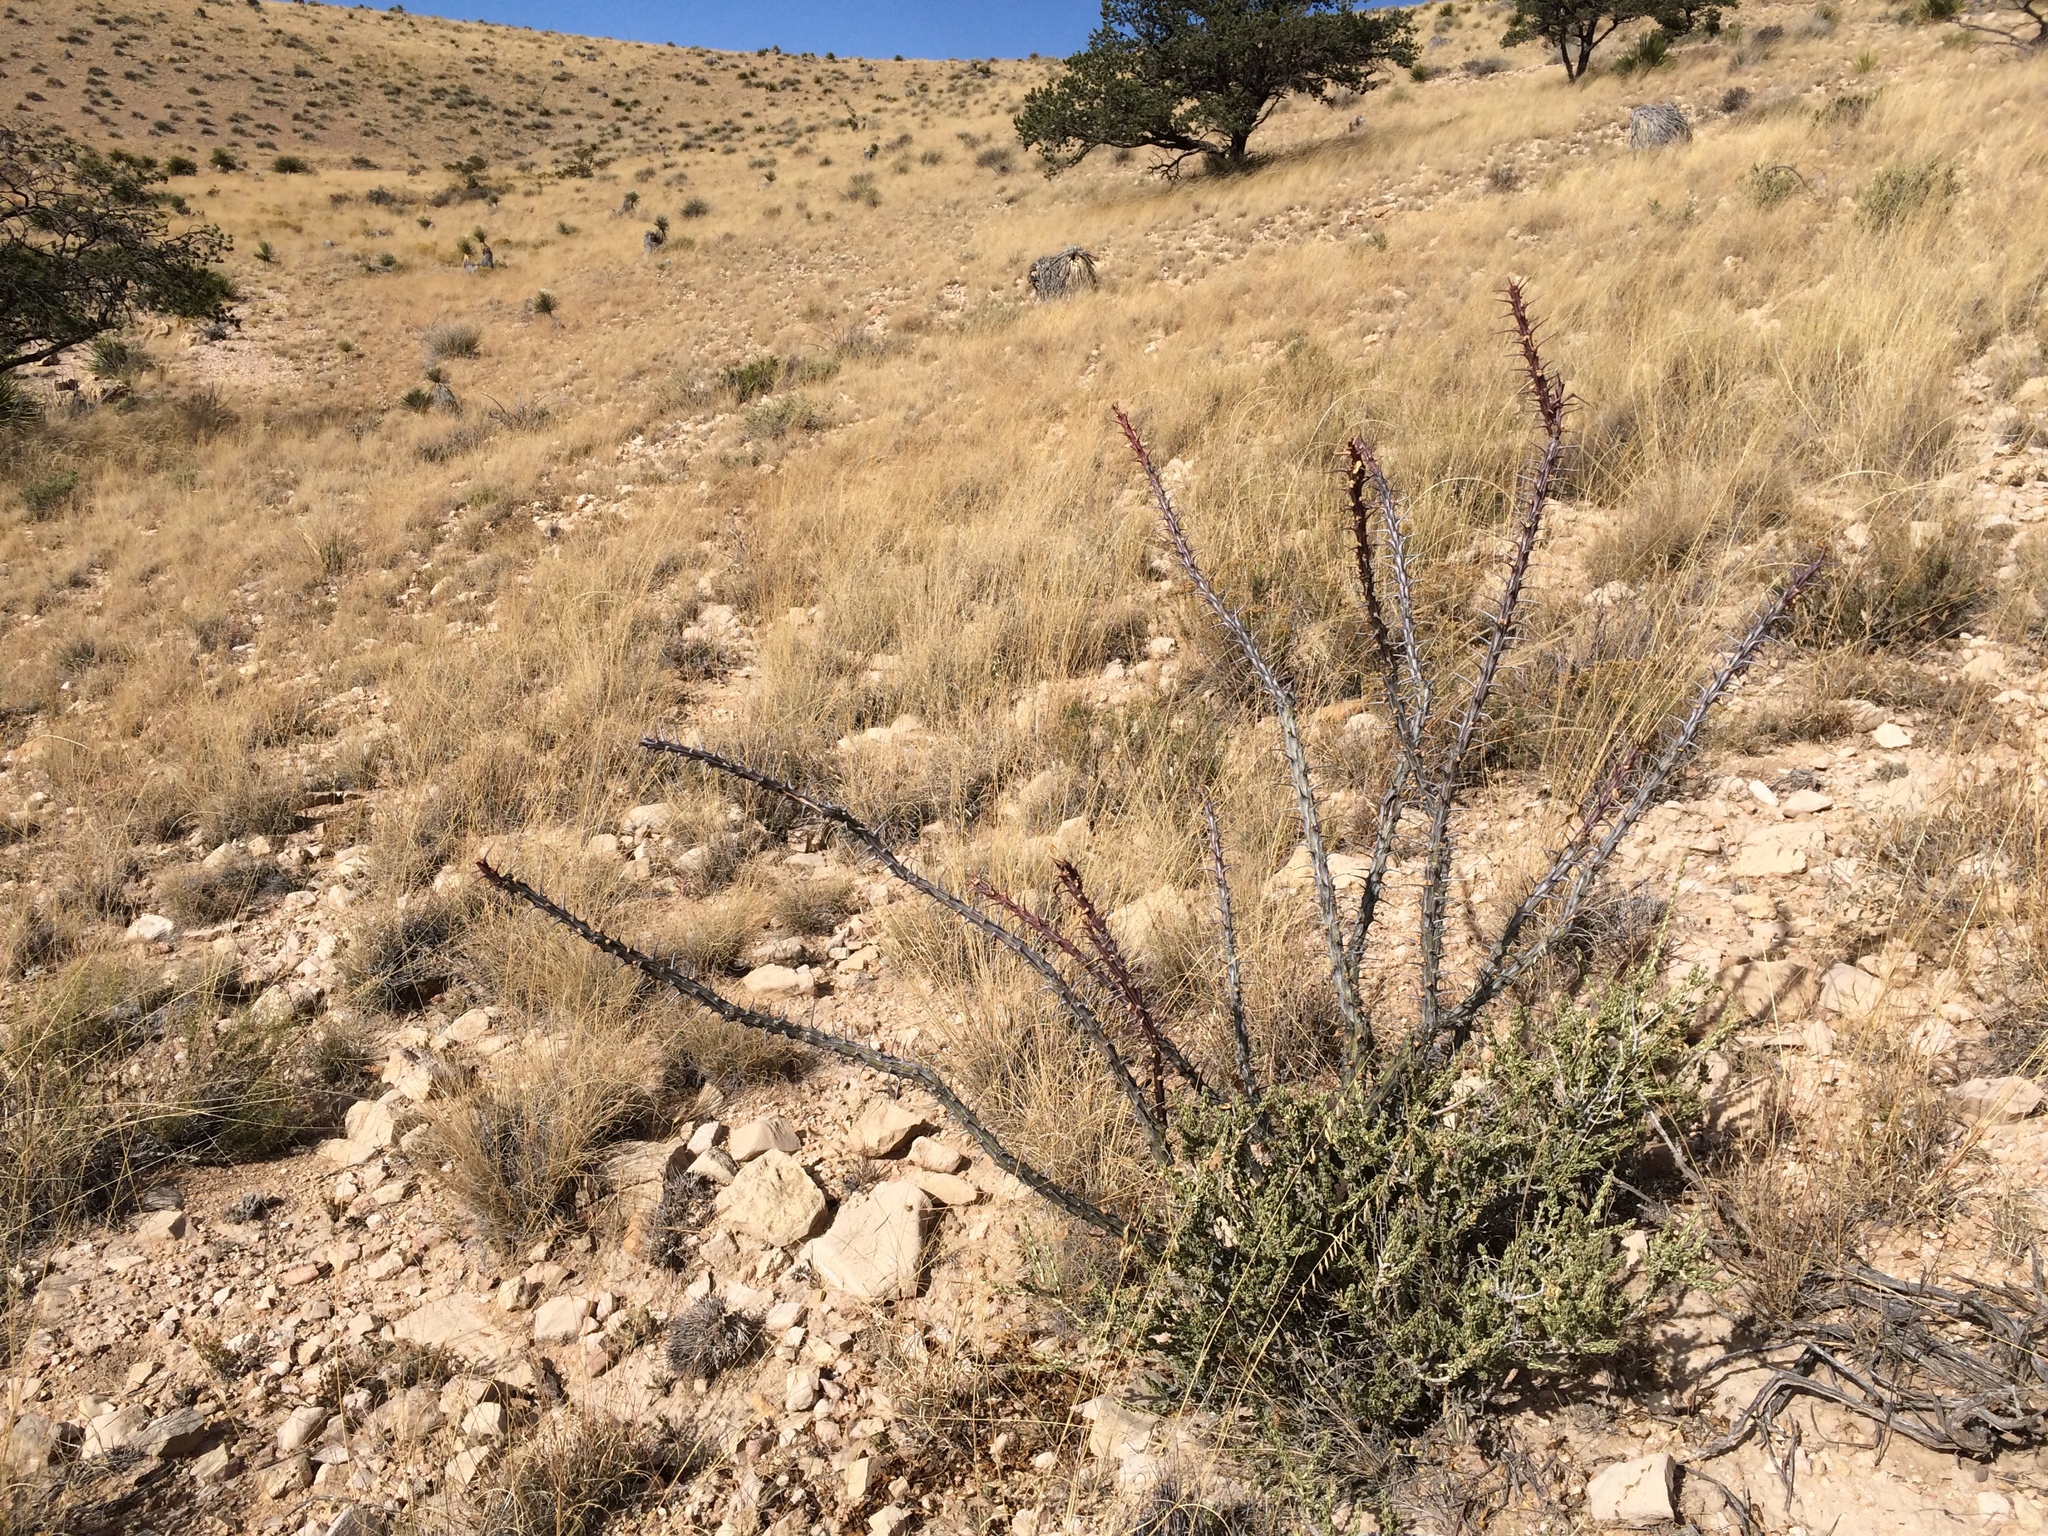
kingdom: Plantae
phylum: Tracheophyta
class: Magnoliopsida
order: Ericales
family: Fouquieriaceae
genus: Fouquieria
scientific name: Fouquieria splendens
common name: Vine-cactus
